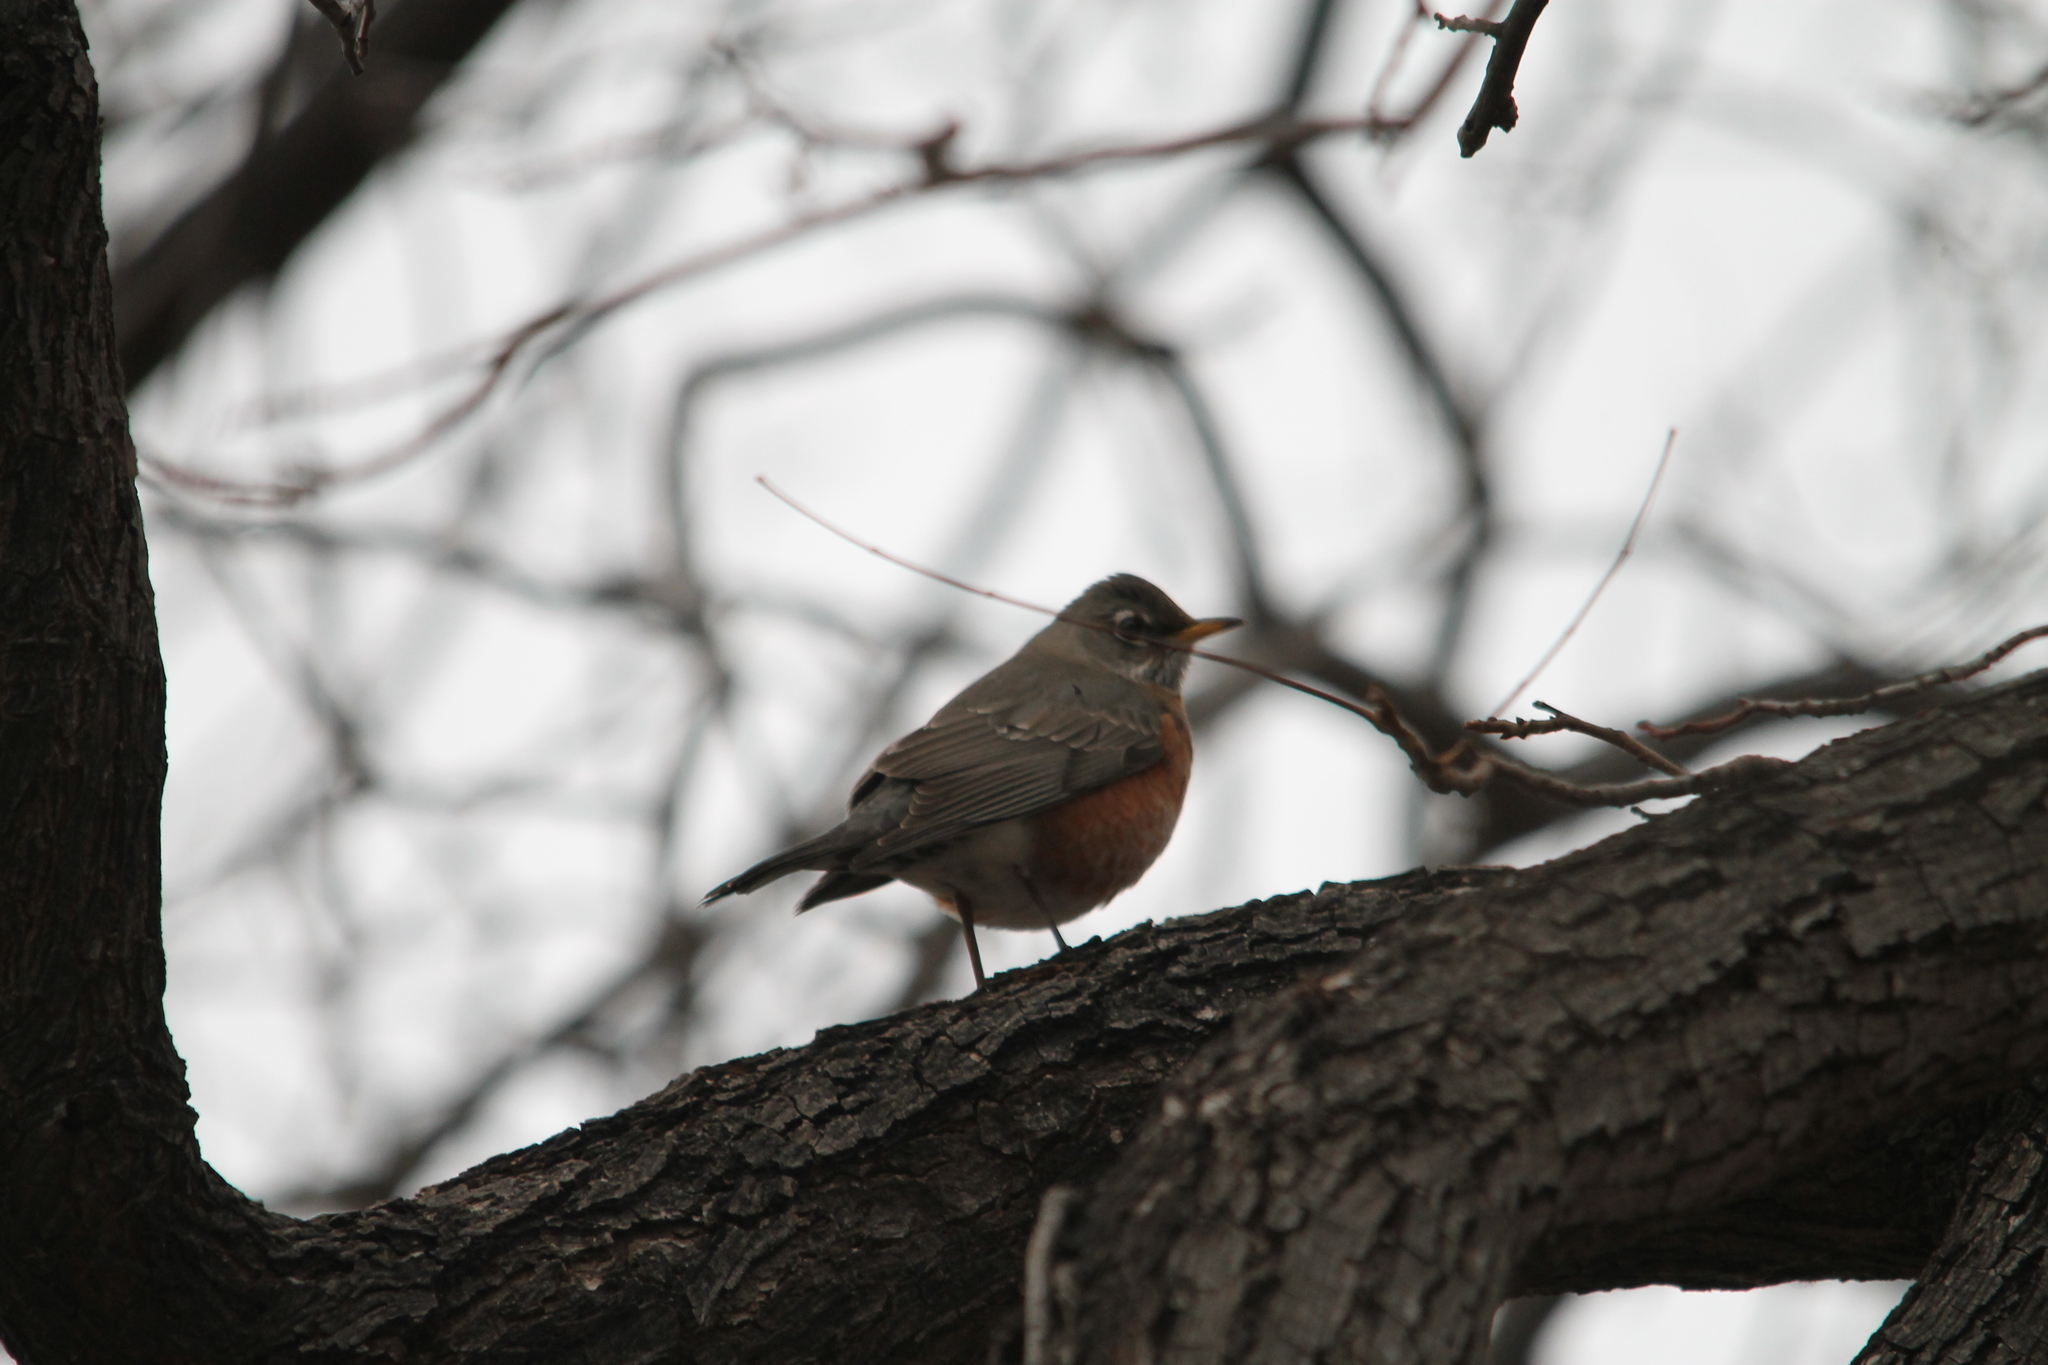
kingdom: Animalia
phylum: Chordata
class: Aves
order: Passeriformes
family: Turdidae
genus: Turdus
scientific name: Turdus migratorius
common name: American robin
